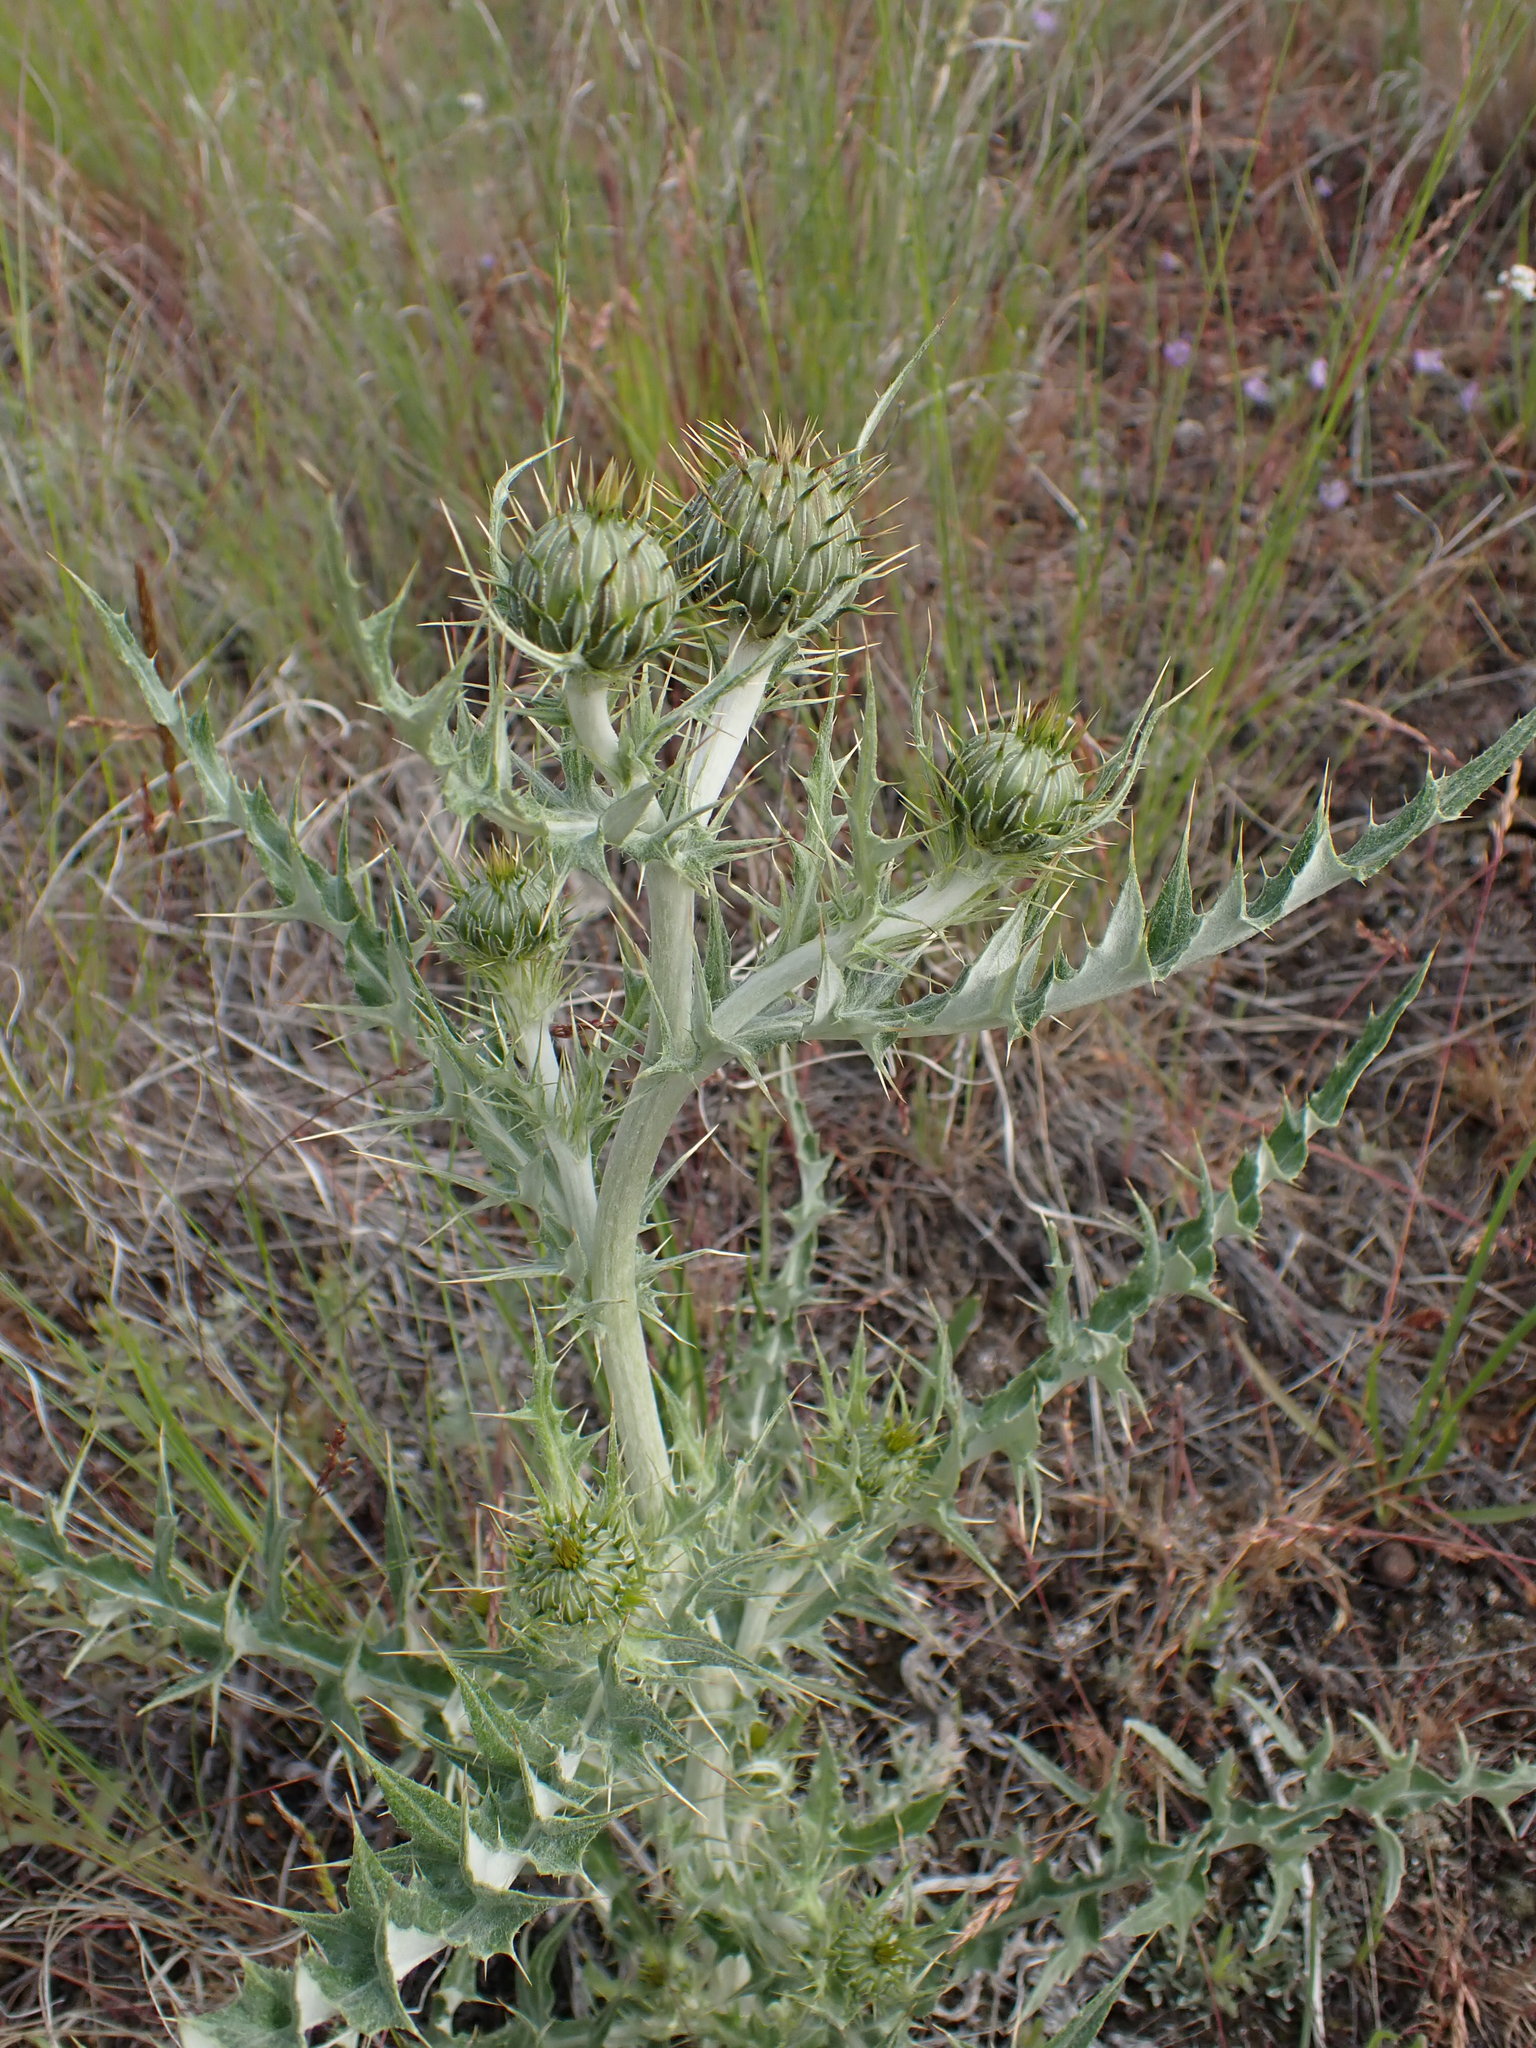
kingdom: Plantae
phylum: Tracheophyta
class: Magnoliopsida
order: Asterales
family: Asteraceae
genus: Cirsium
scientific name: Cirsium undulatum
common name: Pasture thistle
